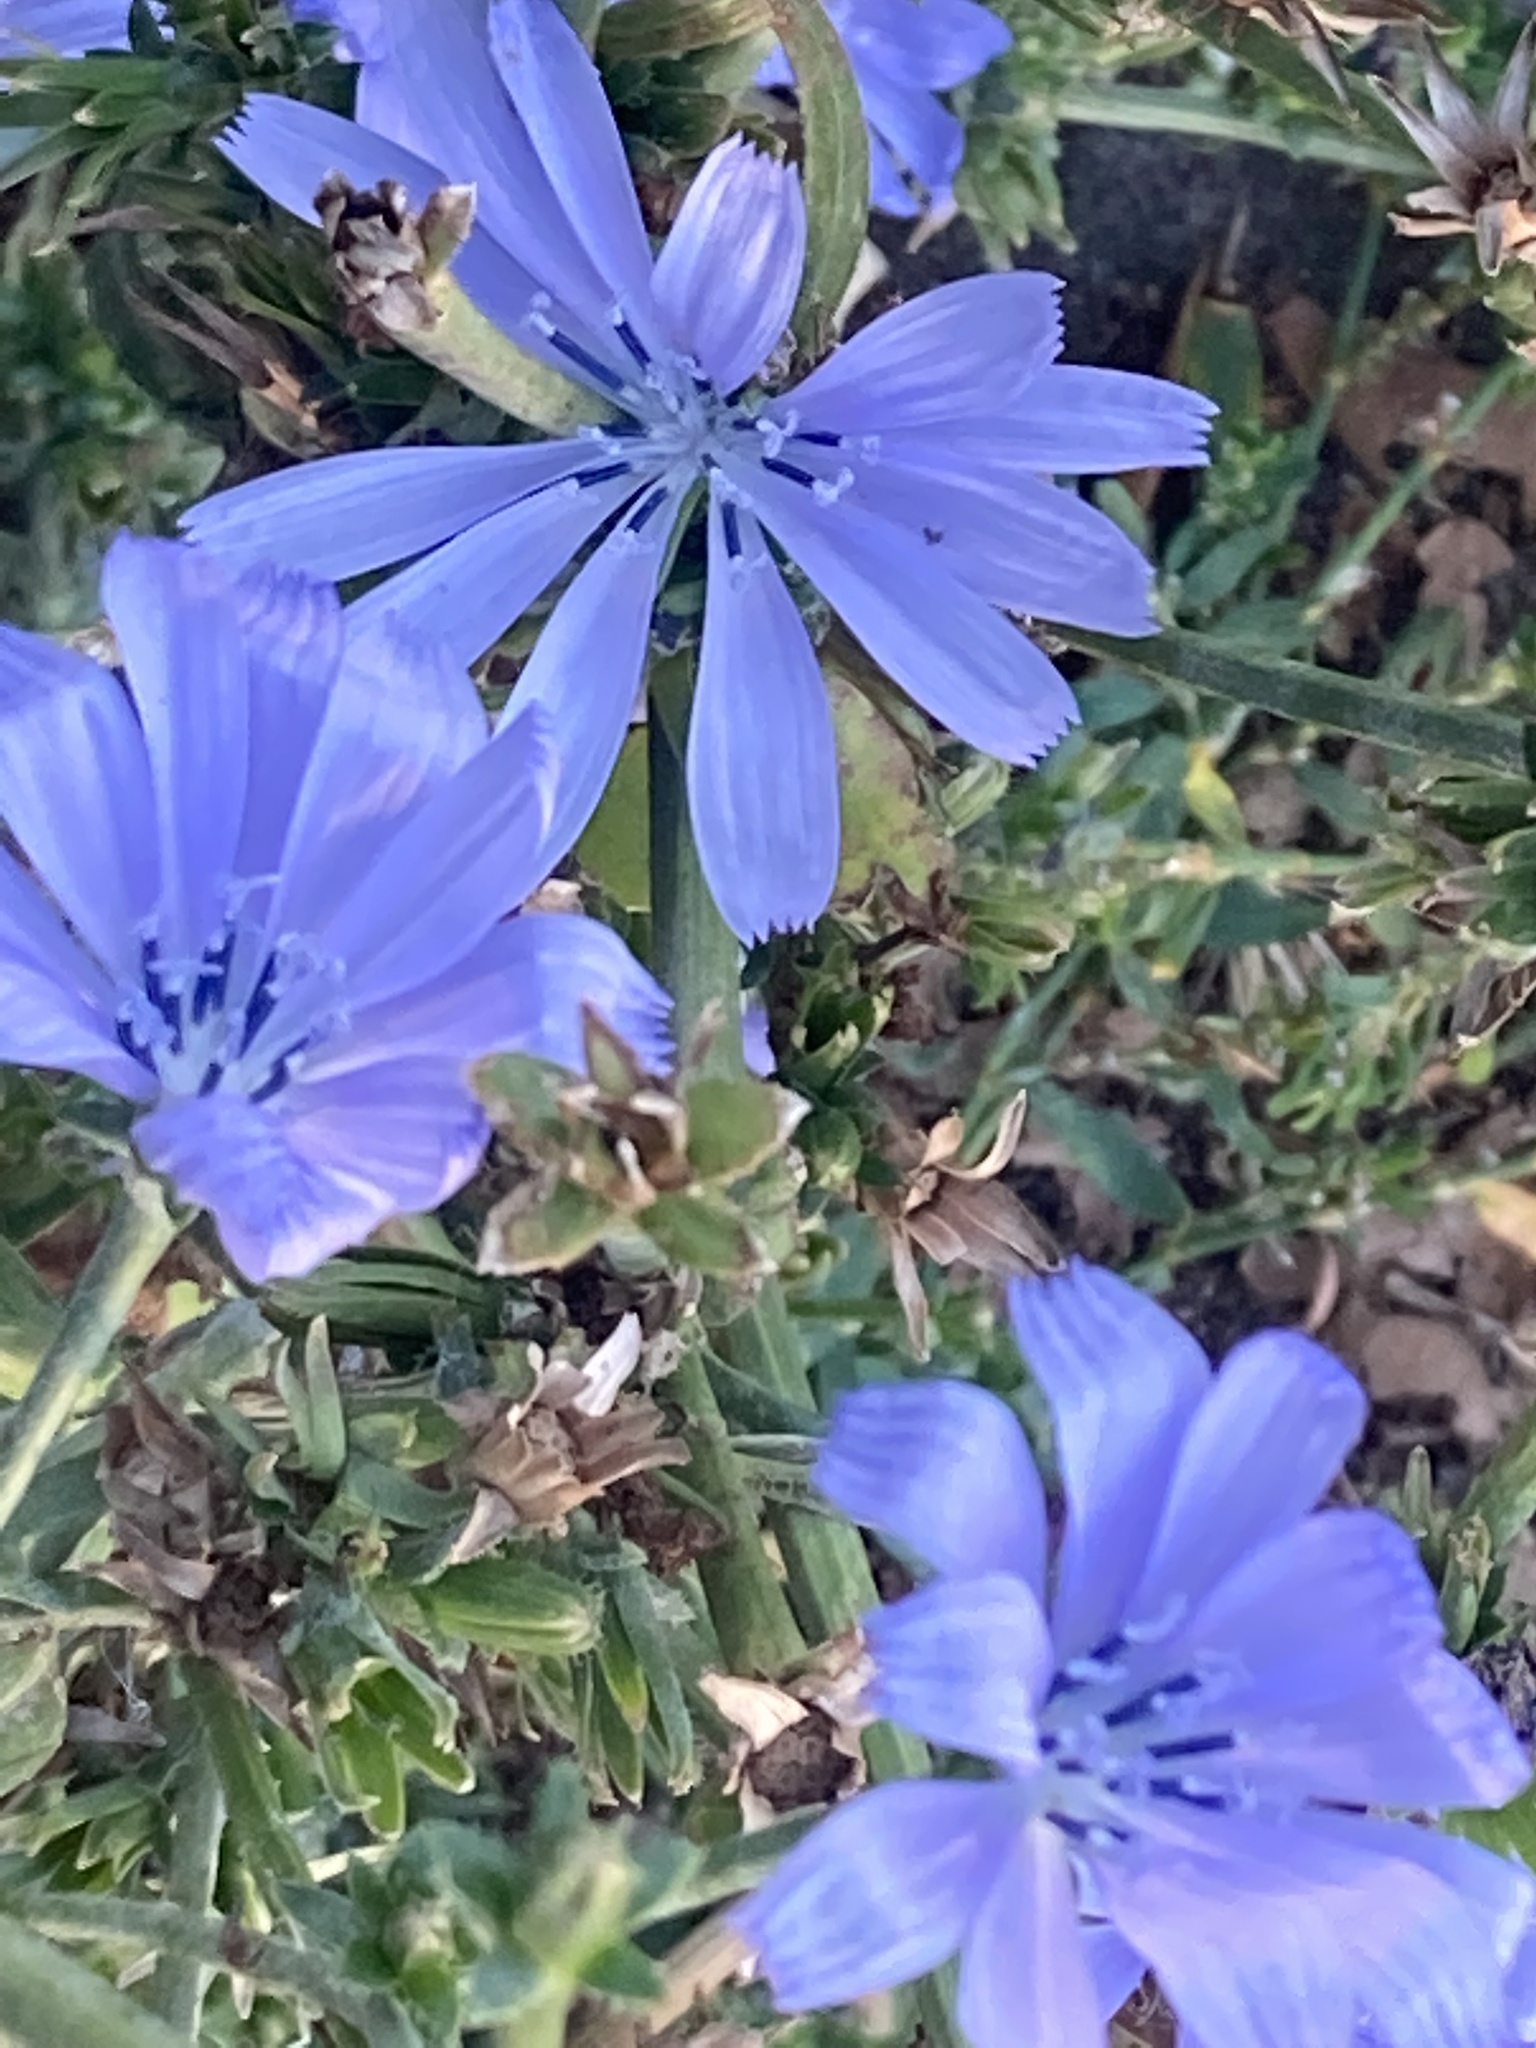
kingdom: Plantae
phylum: Tracheophyta
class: Magnoliopsida
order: Asterales
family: Asteraceae
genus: Cichorium
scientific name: Cichorium intybus
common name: Chicory
